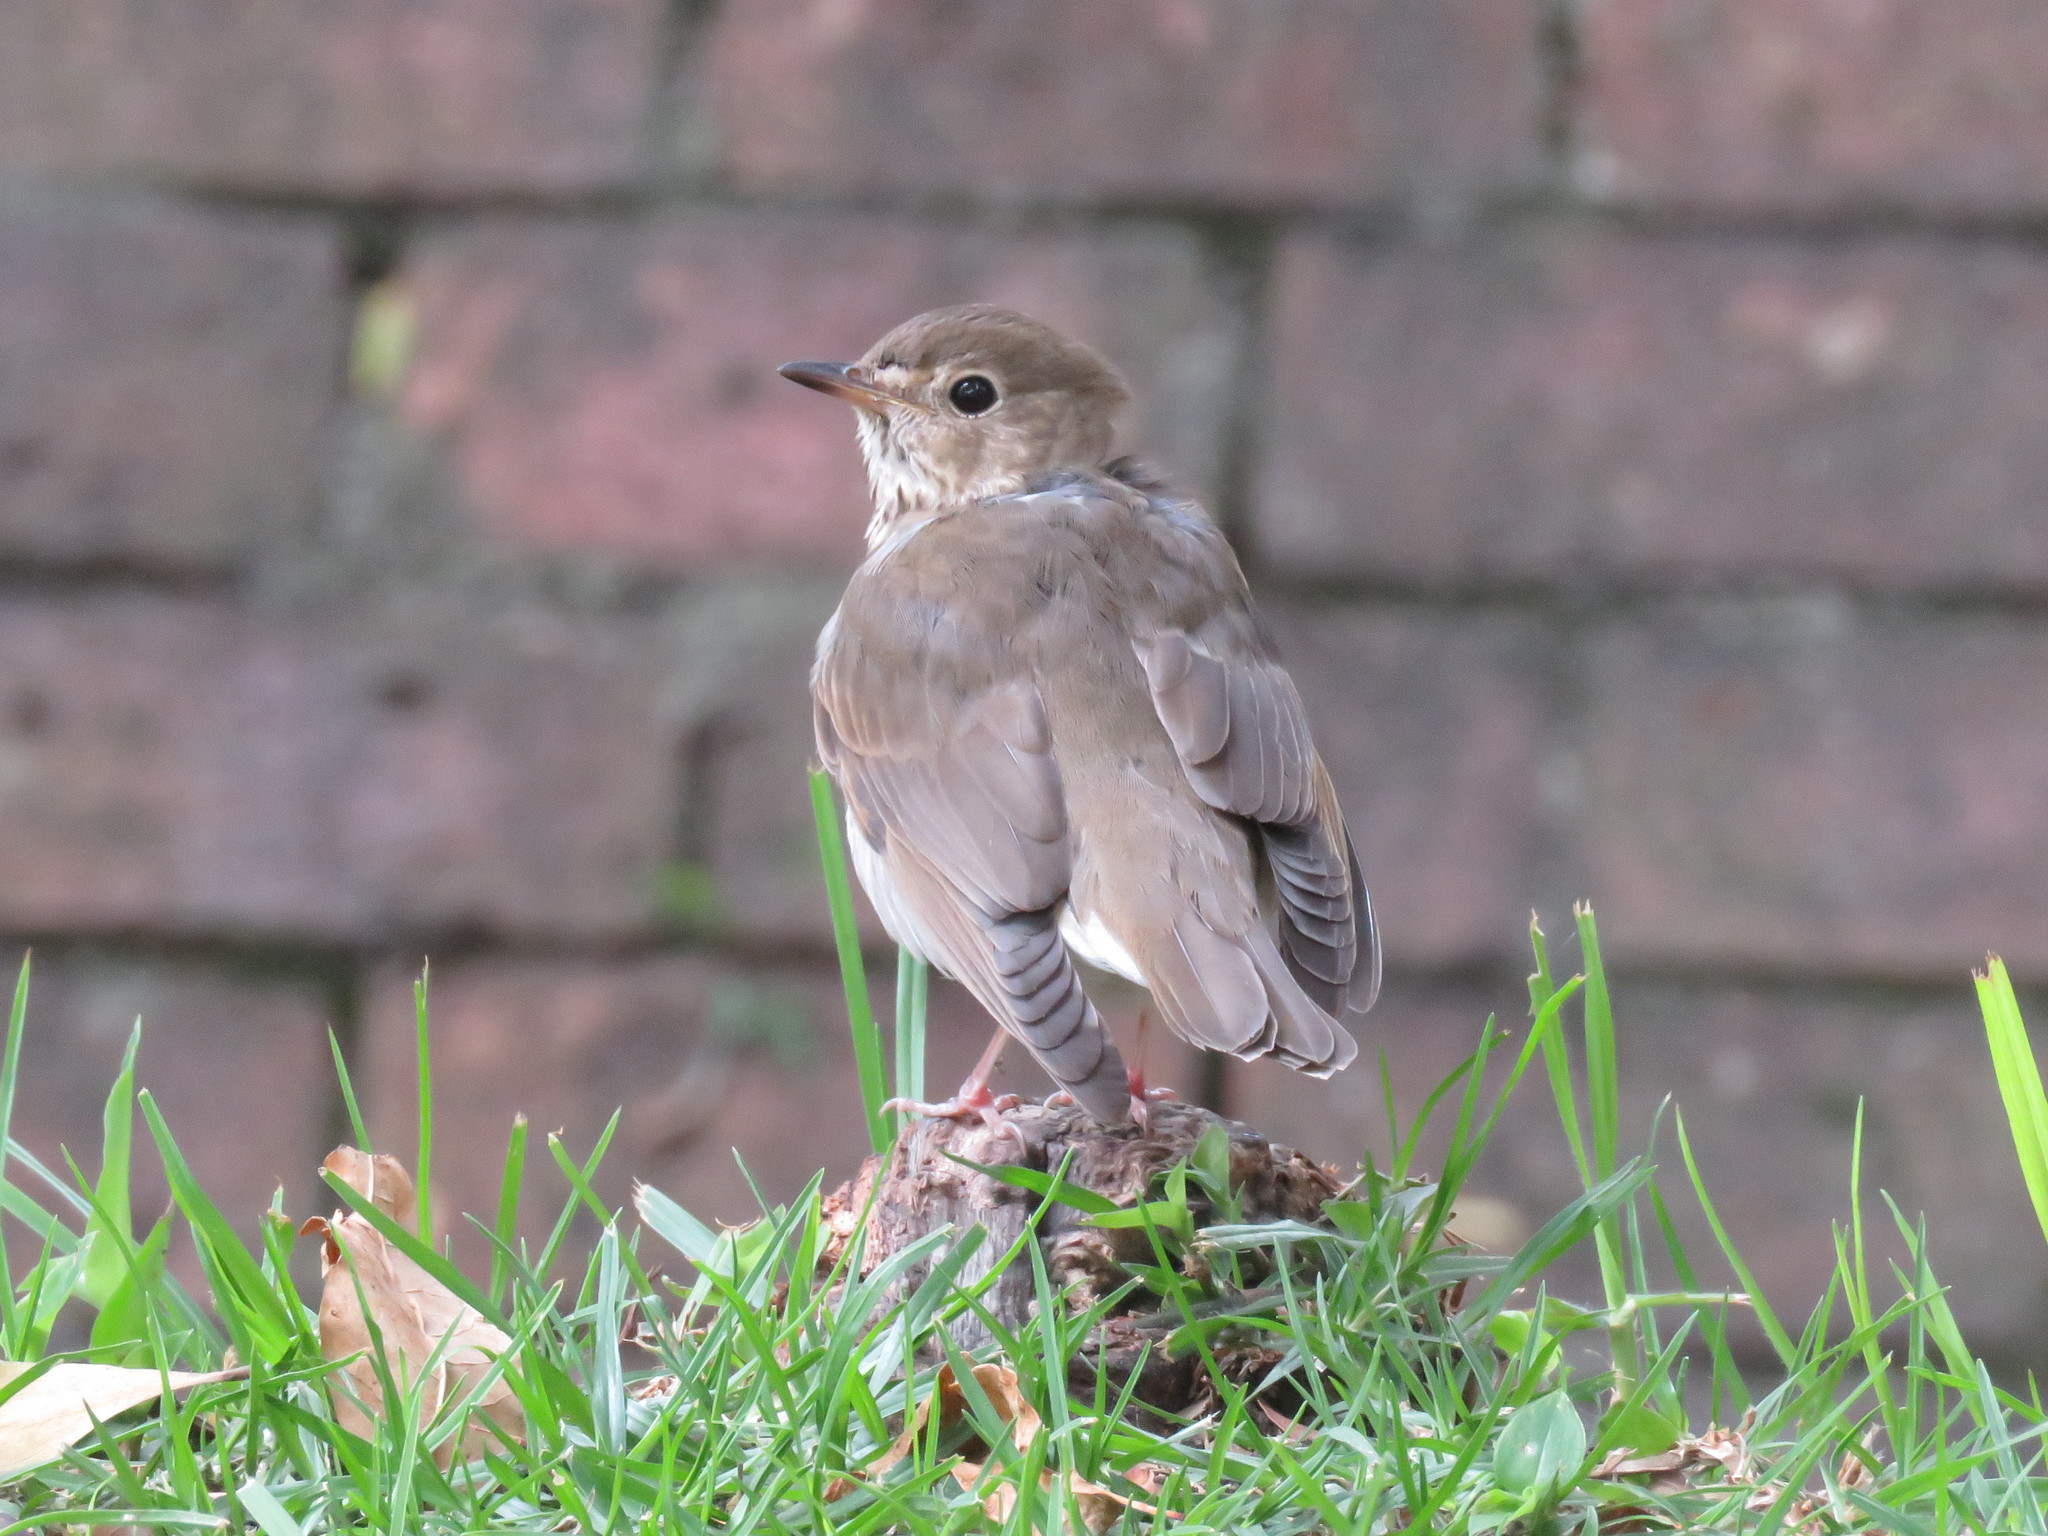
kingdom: Animalia
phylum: Chordata
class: Aves
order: Passeriformes
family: Turdidae
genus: Catharus
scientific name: Catharus minimus
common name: Grey-cheeked thrush
